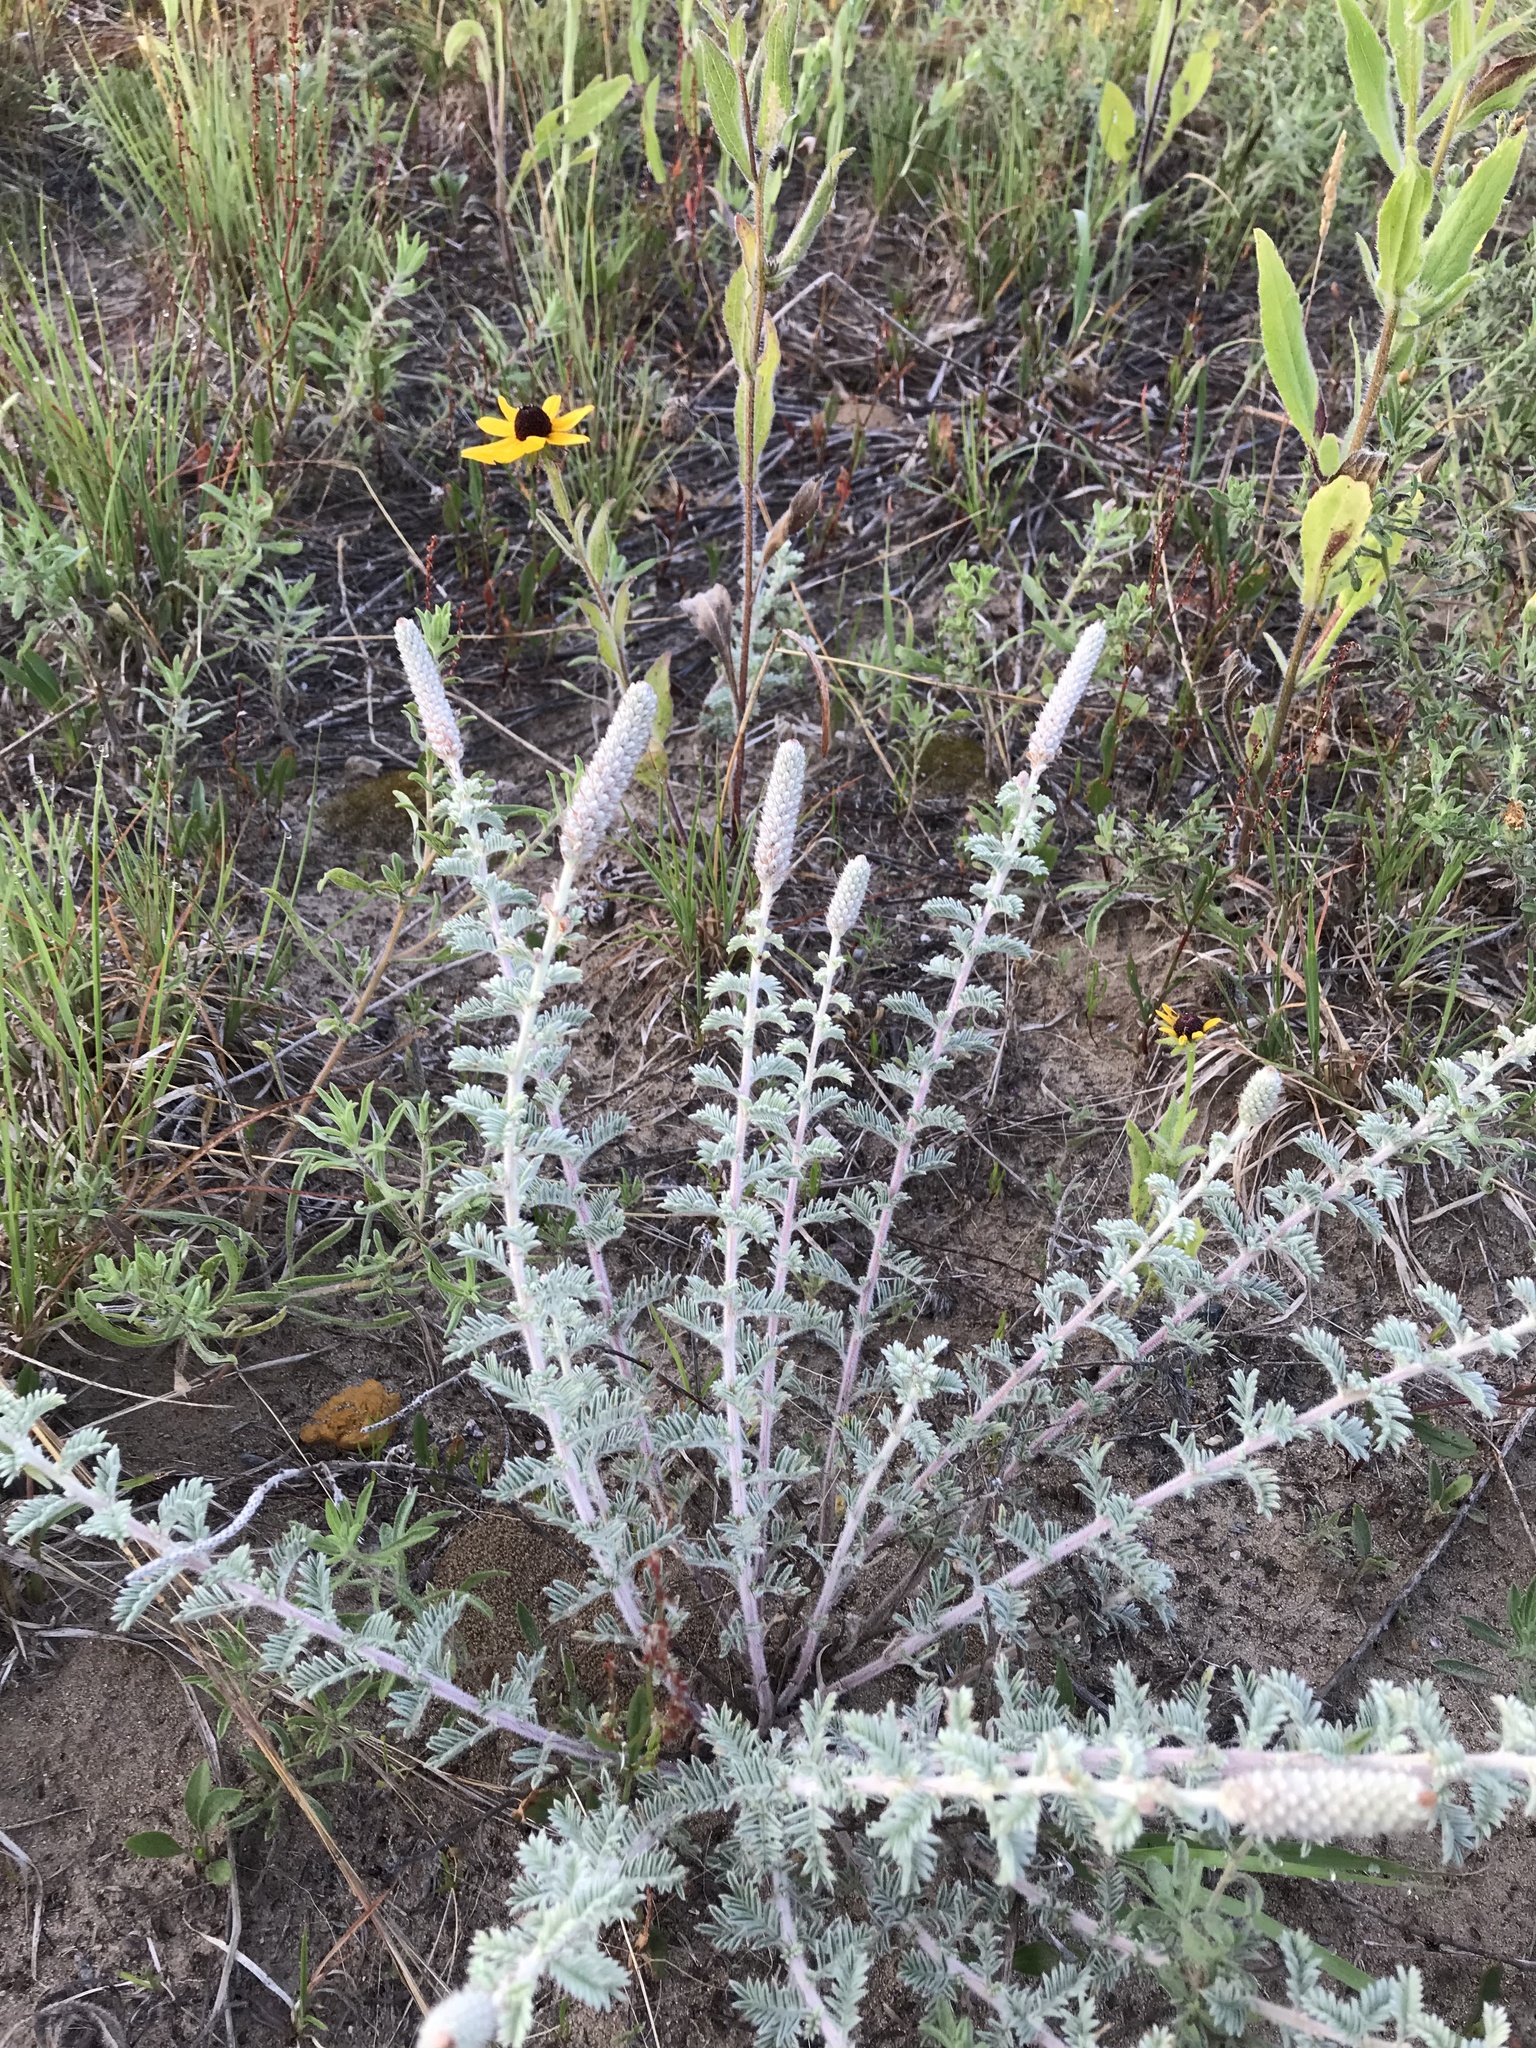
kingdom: Plantae
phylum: Tracheophyta
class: Magnoliopsida
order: Fabales
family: Fabaceae
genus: Dalea
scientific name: Dalea villosa
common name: Silky prairie-clover
